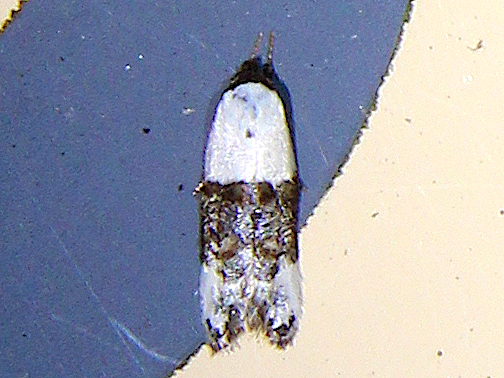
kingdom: Animalia
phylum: Arthropoda
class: Insecta
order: Lepidoptera
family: Oecophoridae
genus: Trachypepla
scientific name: Trachypepla amphileuca
